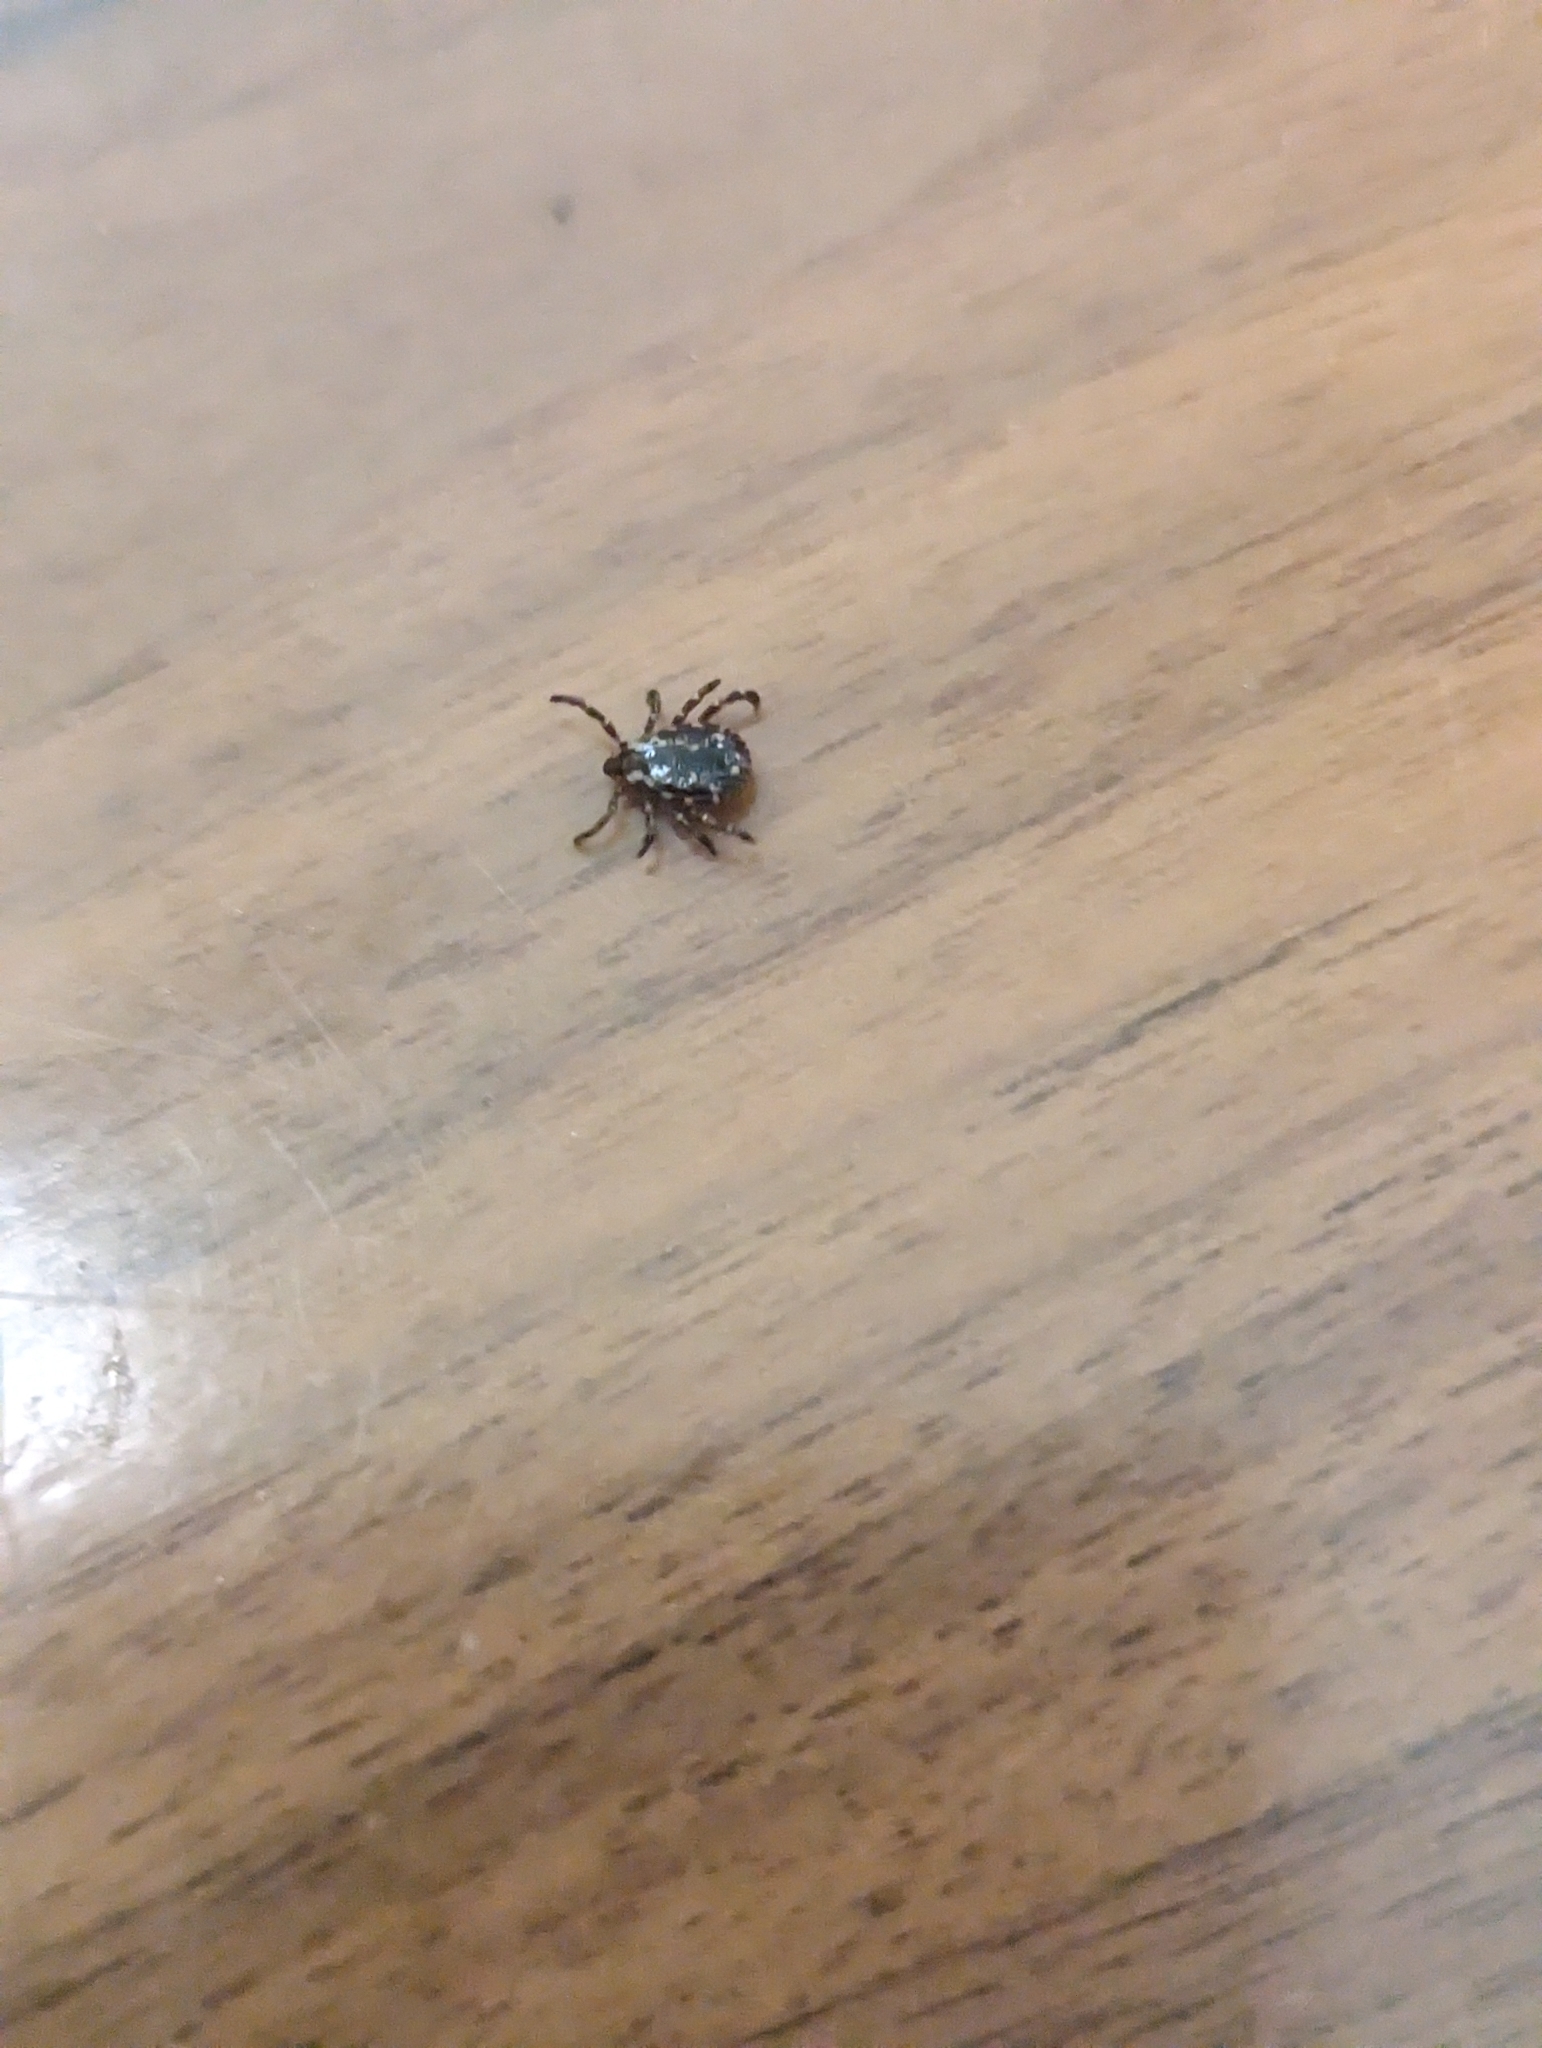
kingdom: Animalia
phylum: Arthropoda
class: Arachnida
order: Ixodida
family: Ixodidae
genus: Dermacentor
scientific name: Dermacentor variabilis
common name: American dog tick
